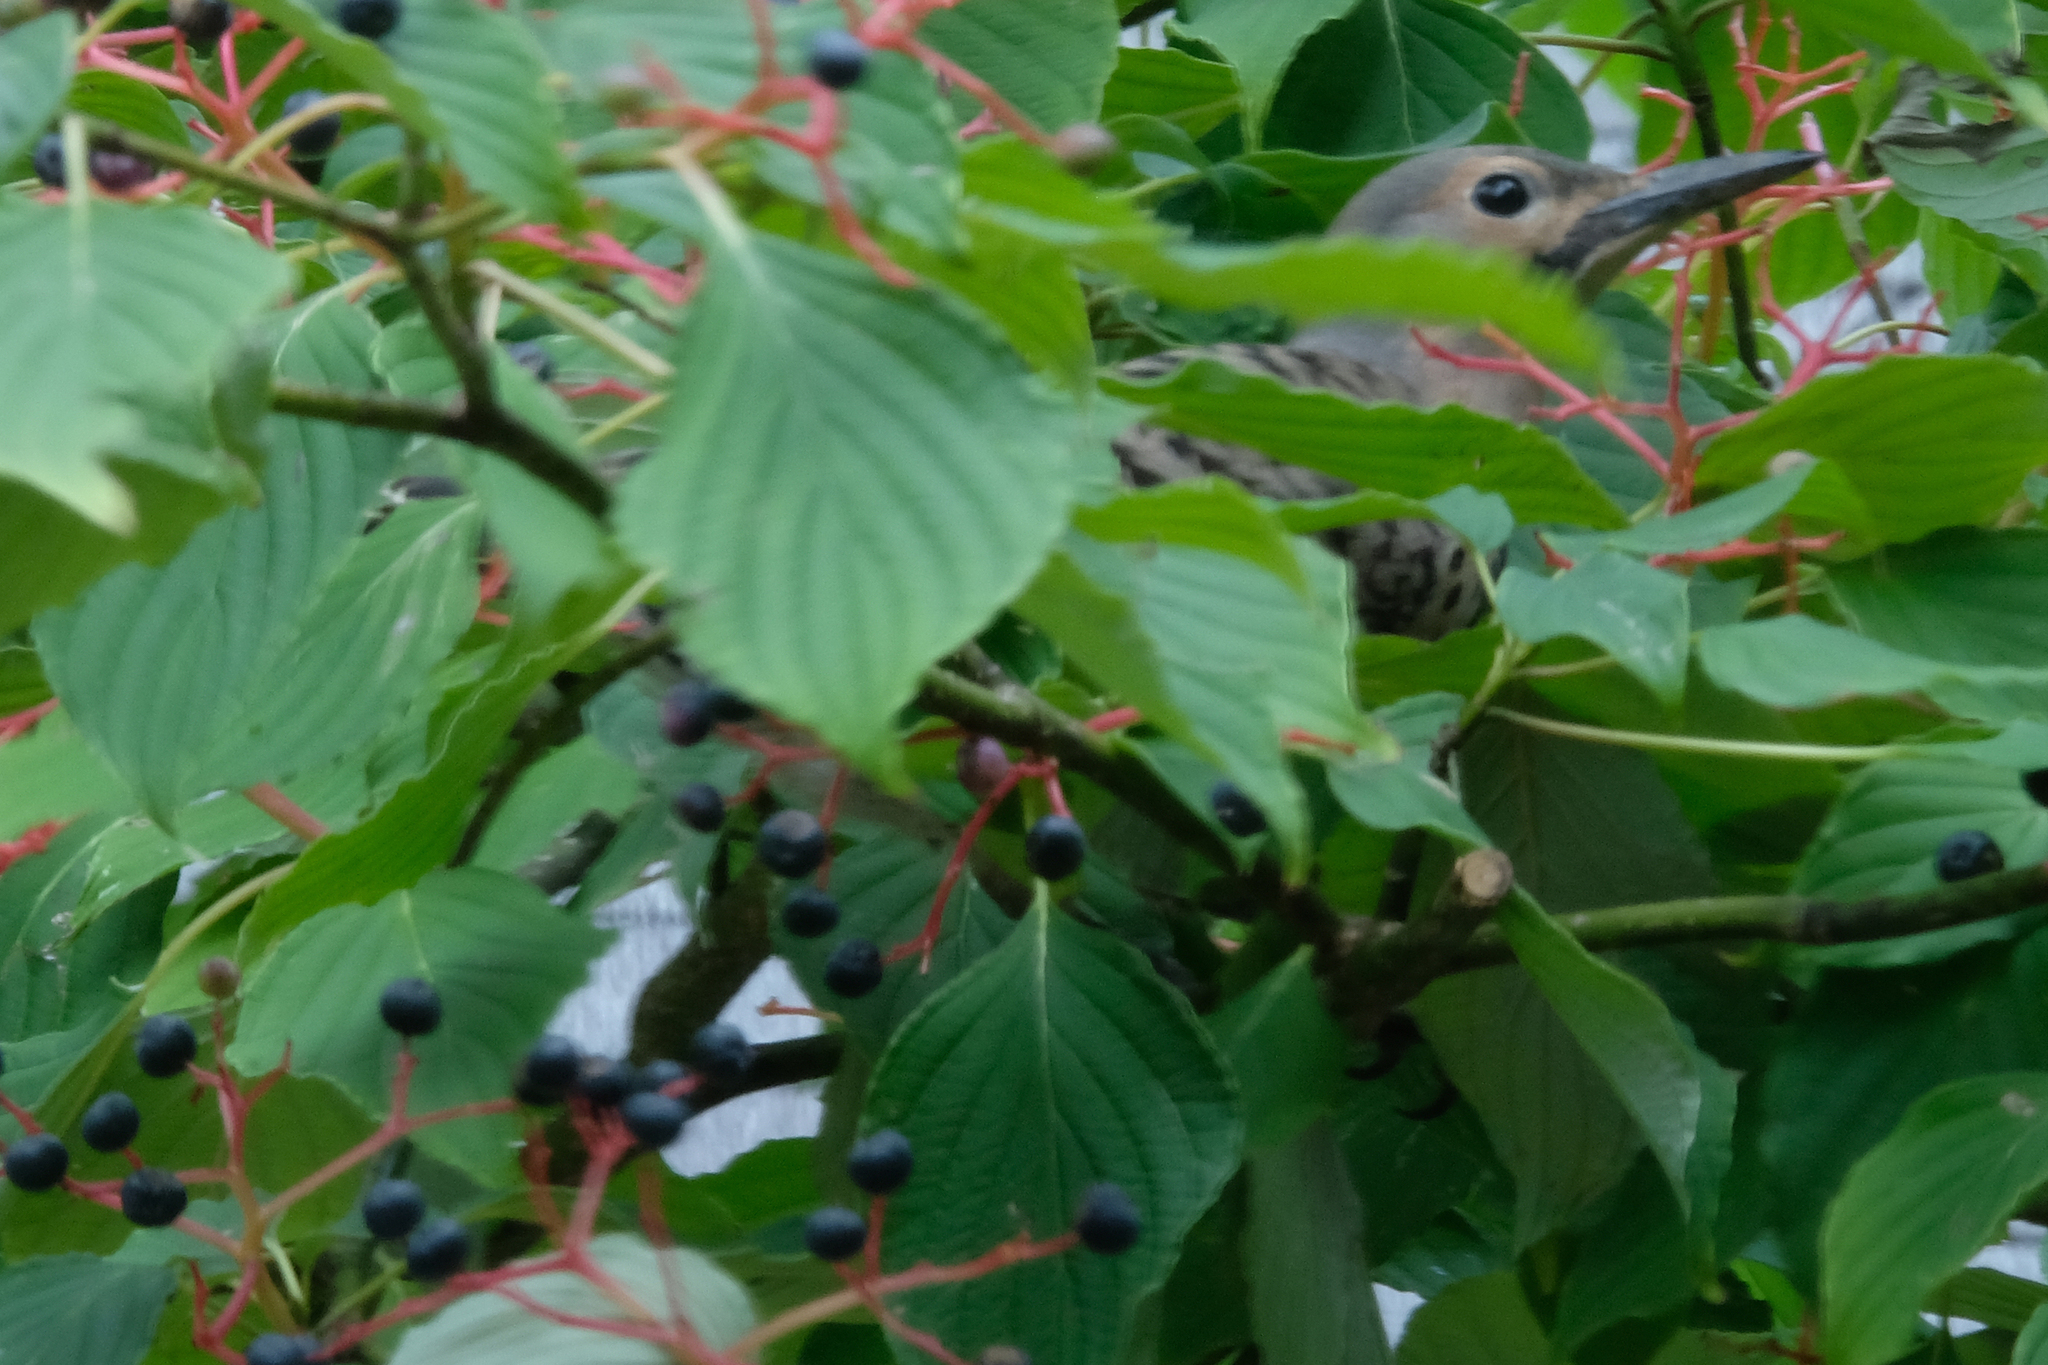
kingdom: Animalia
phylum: Chordata
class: Aves
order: Piciformes
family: Picidae
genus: Colaptes
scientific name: Colaptes auratus
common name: Northern flicker
